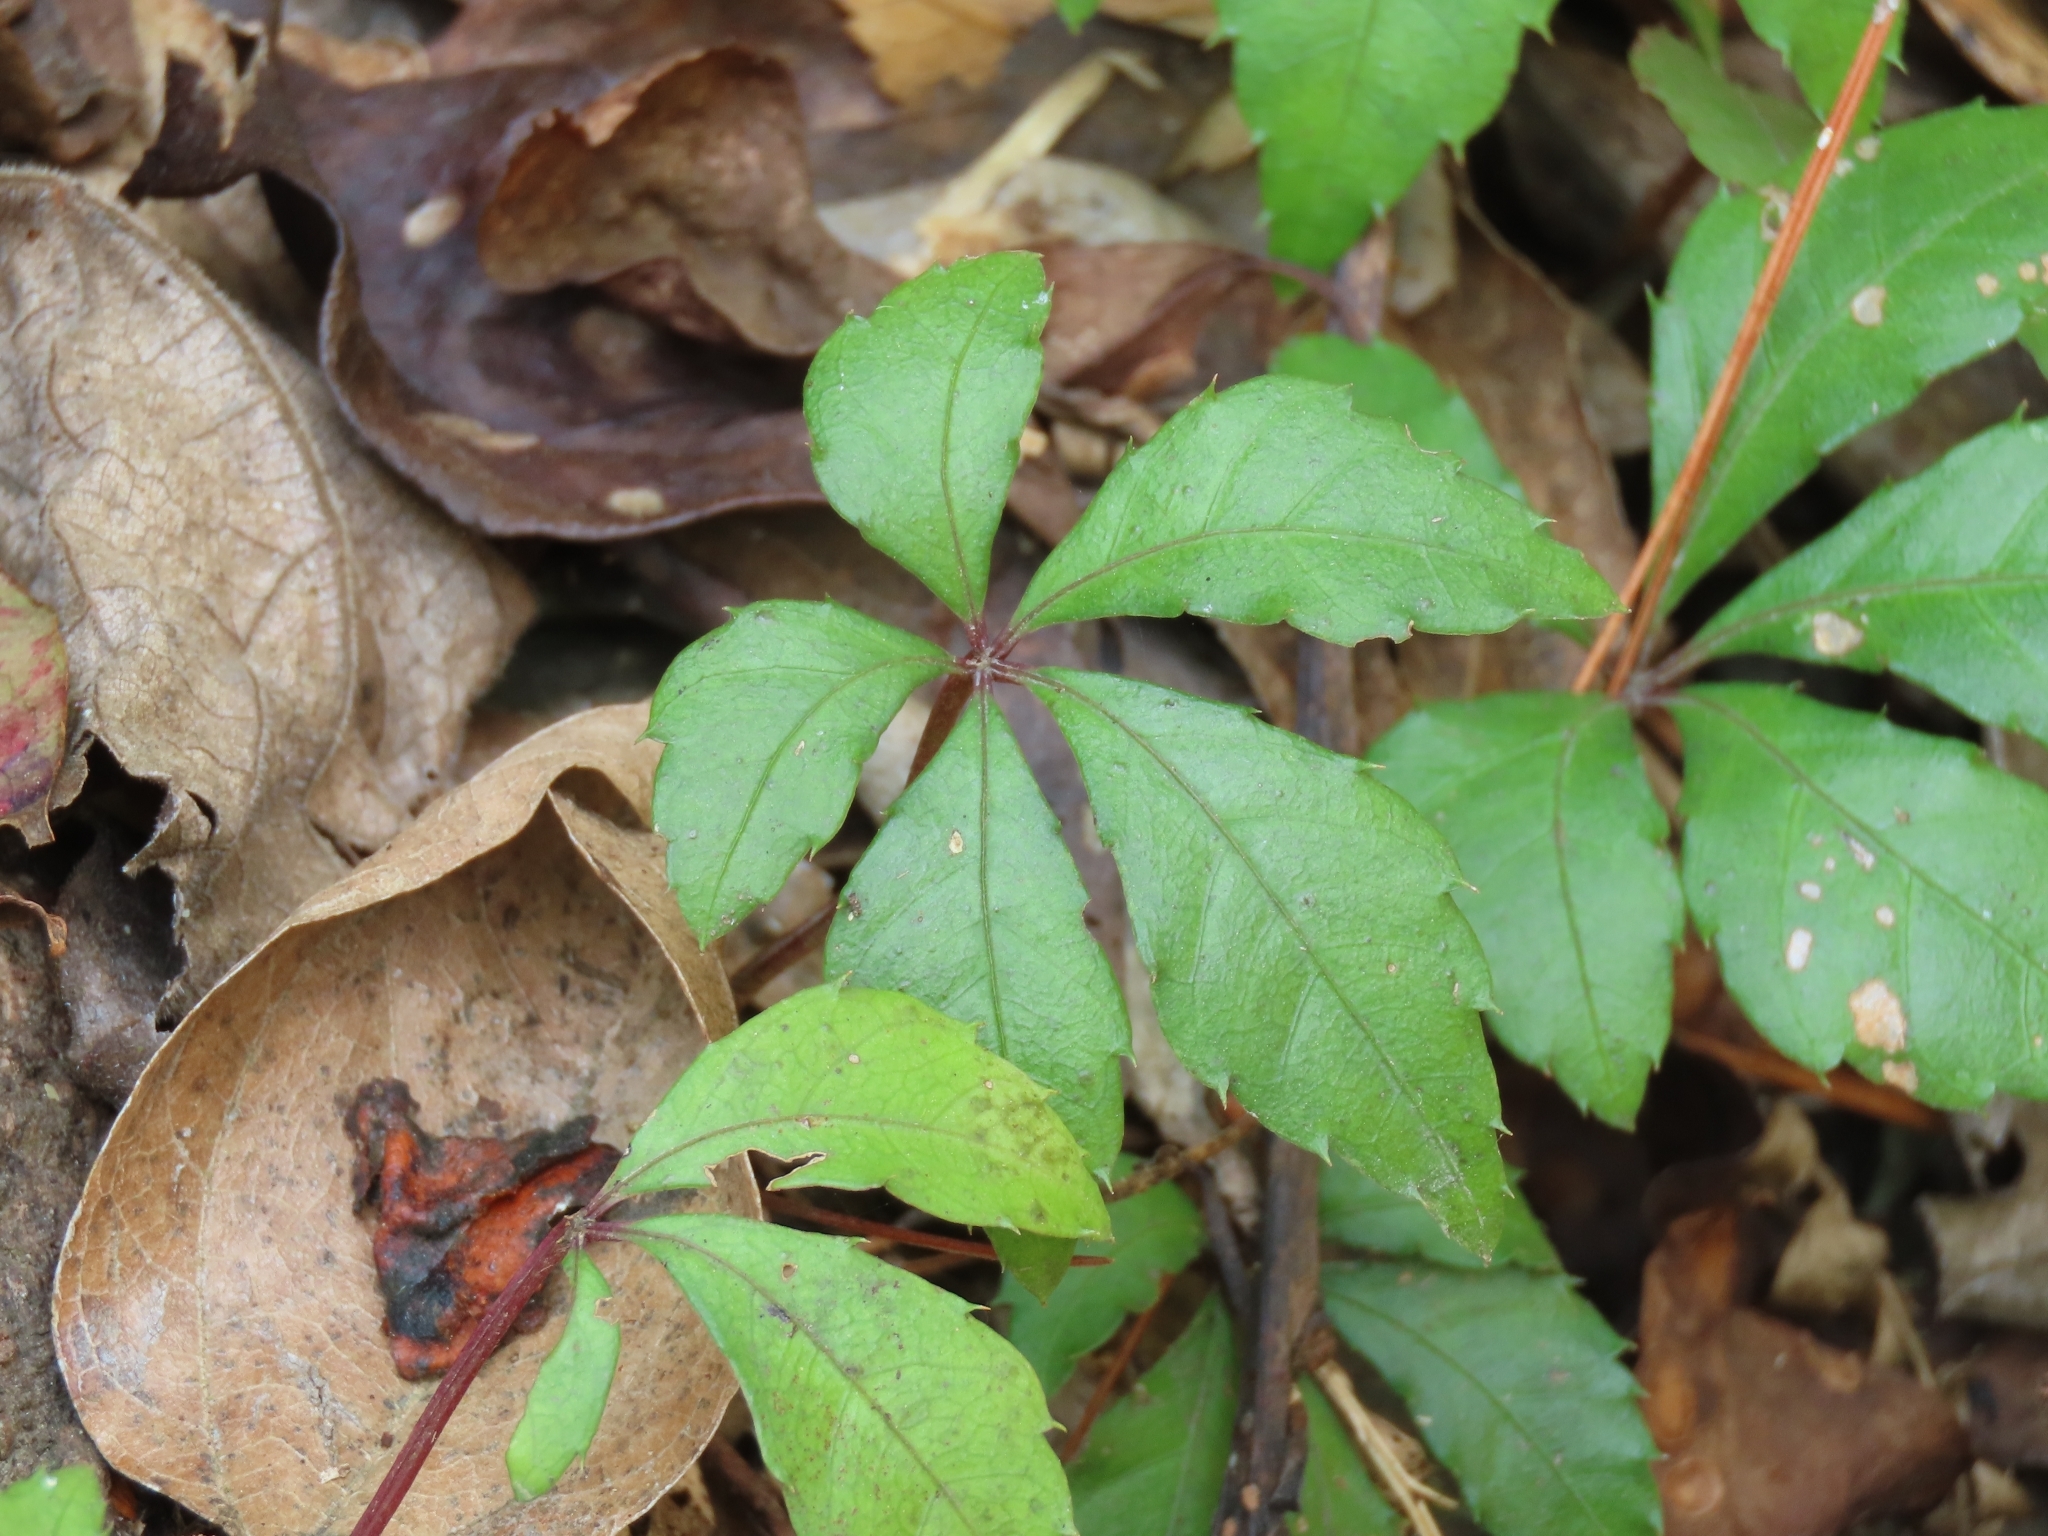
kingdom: Plantae
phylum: Tracheophyta
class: Magnoliopsida
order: Vitales
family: Vitaceae
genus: Tetrastigma
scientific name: Tetrastigma obtectum
